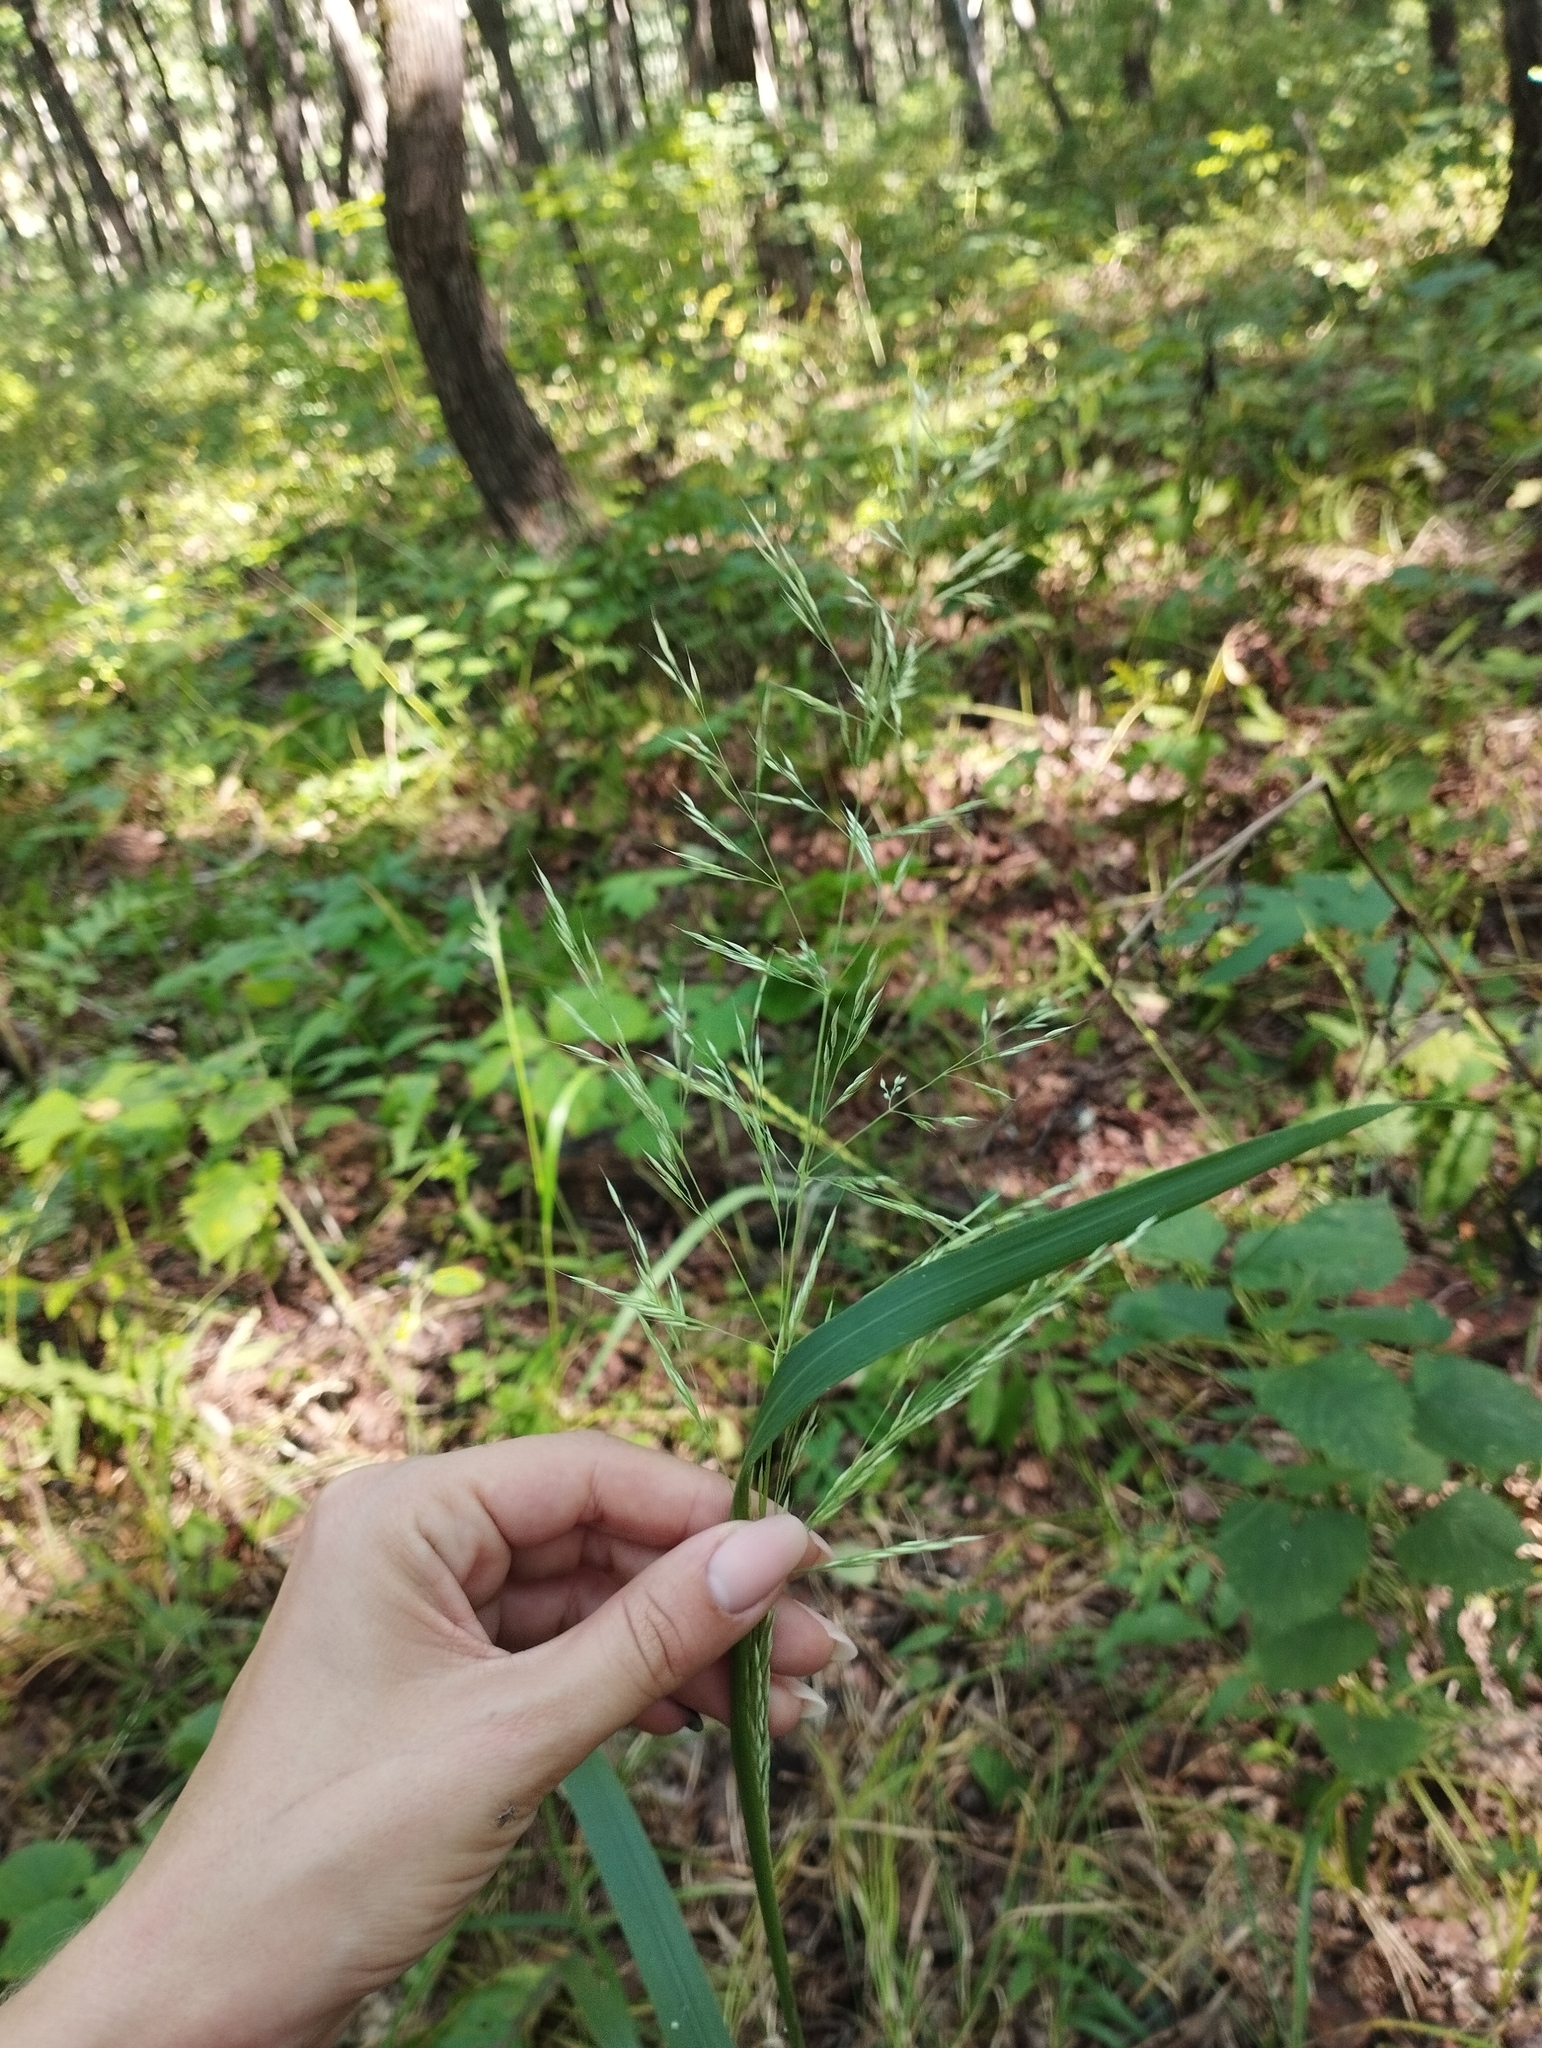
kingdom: Plantae
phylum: Tracheophyta
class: Liliopsida
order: Poales
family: Poaceae
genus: Calamagrostis
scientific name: Calamagrostis arundinacea
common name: Metskastik
